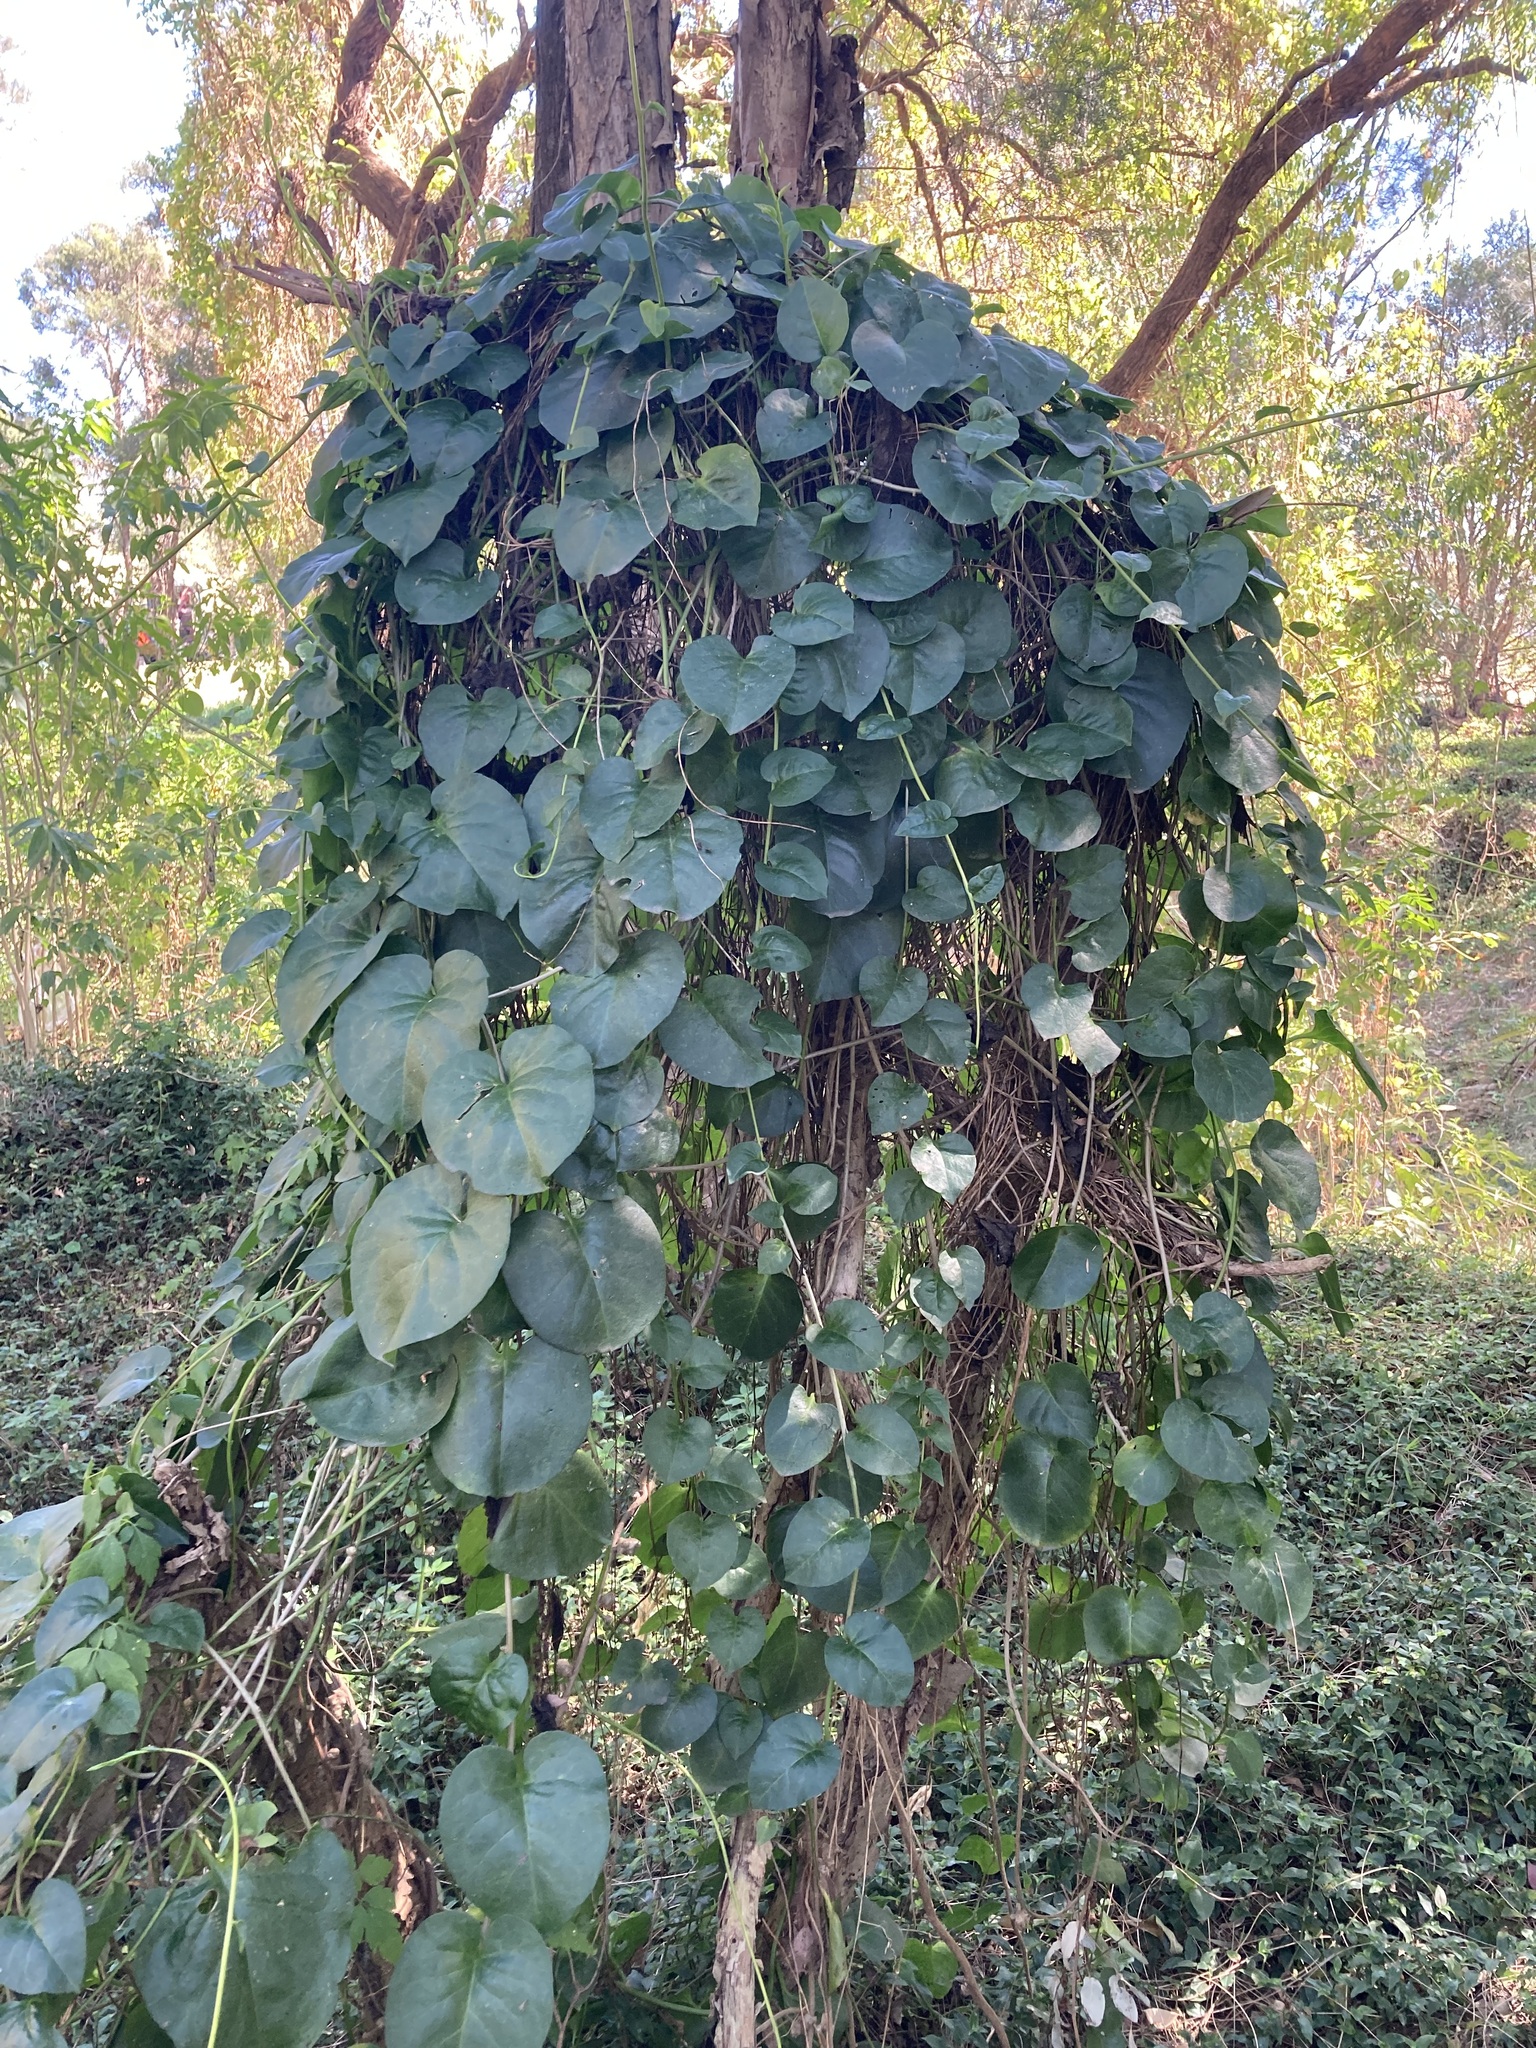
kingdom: Plantae
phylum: Tracheophyta
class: Magnoliopsida
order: Caryophyllales
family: Basellaceae
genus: Anredera
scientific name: Anredera cordifolia
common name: Heartleaf madeiravine
